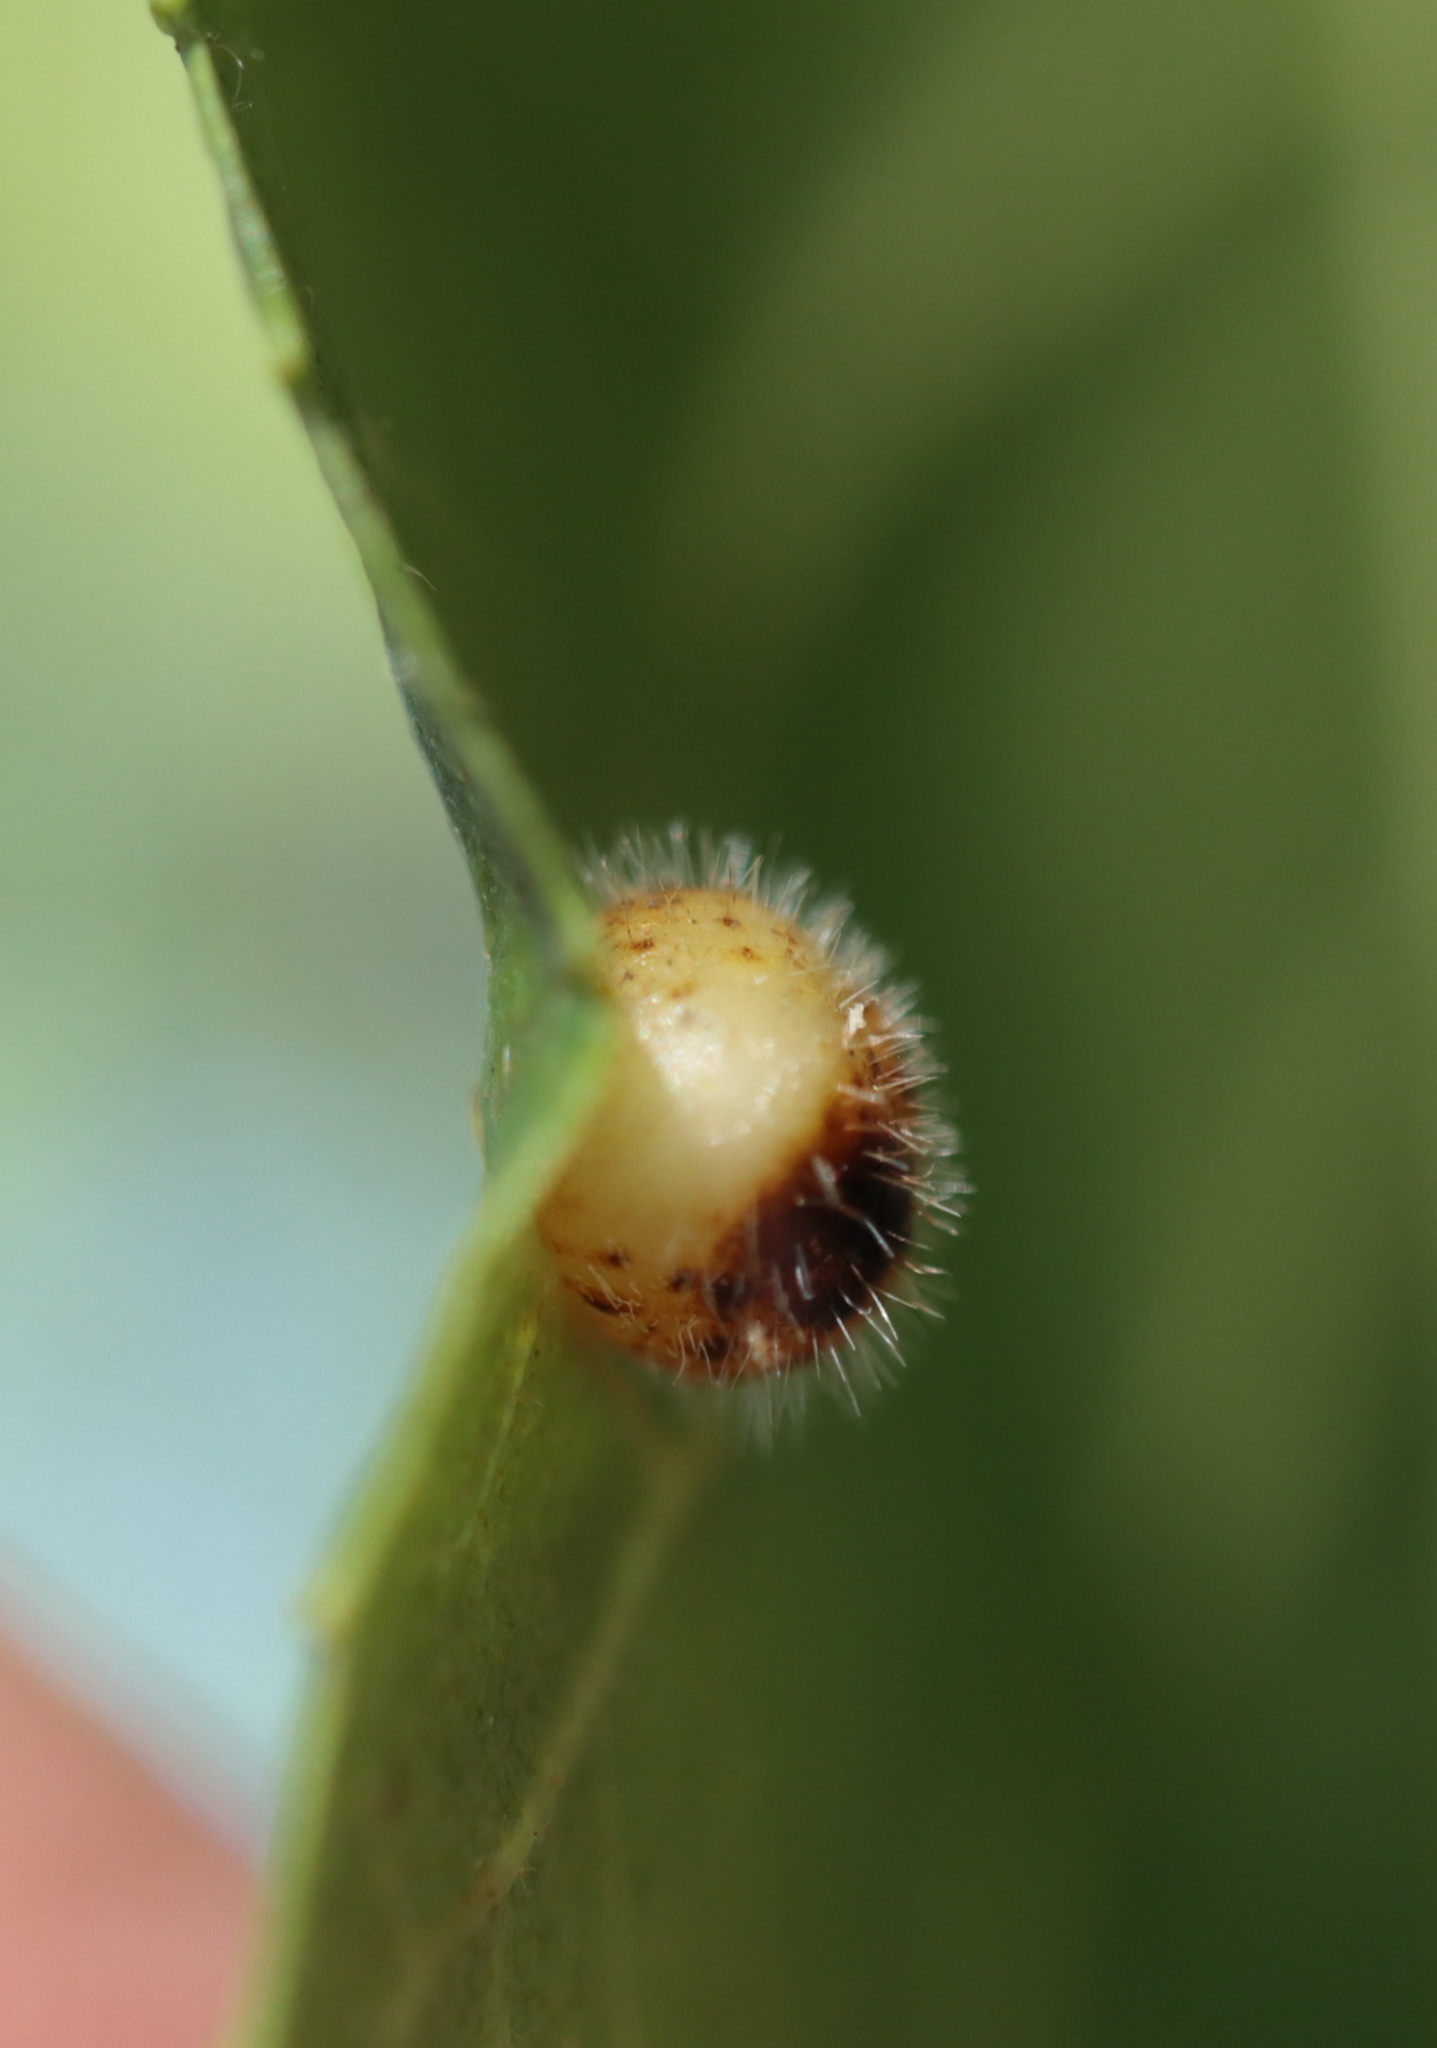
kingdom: Animalia
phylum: Arthropoda
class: Insecta
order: Diptera
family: Cecidomyiidae
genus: Caryomyia
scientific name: Caryomyia thompsoni
